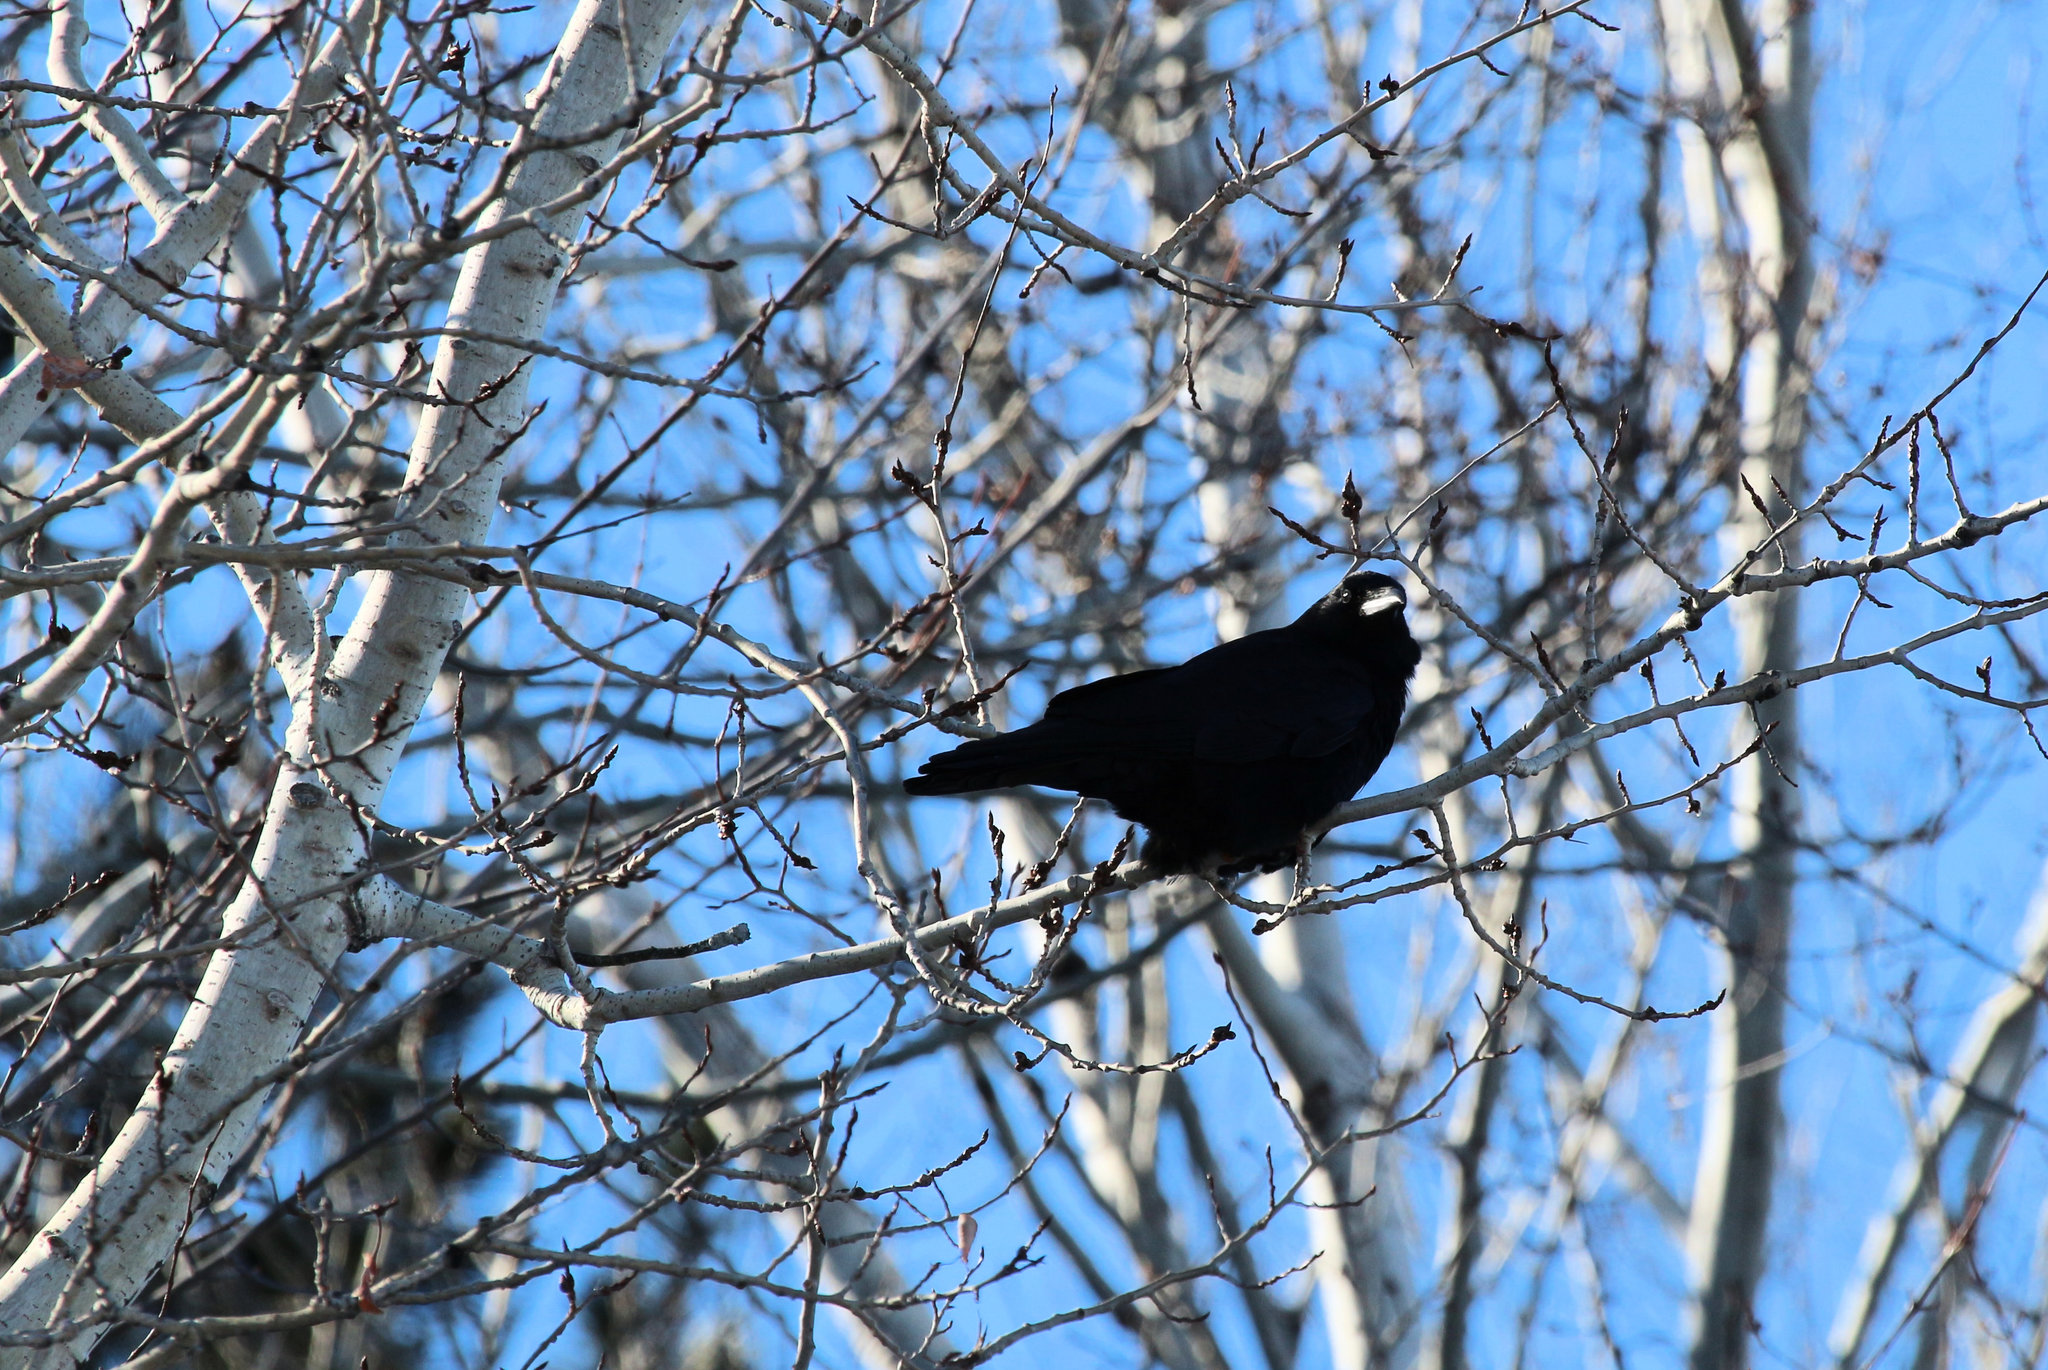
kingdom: Animalia
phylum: Chordata
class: Aves
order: Passeriformes
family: Corvidae
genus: Corvus
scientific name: Corvus brachyrhynchos
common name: American crow
